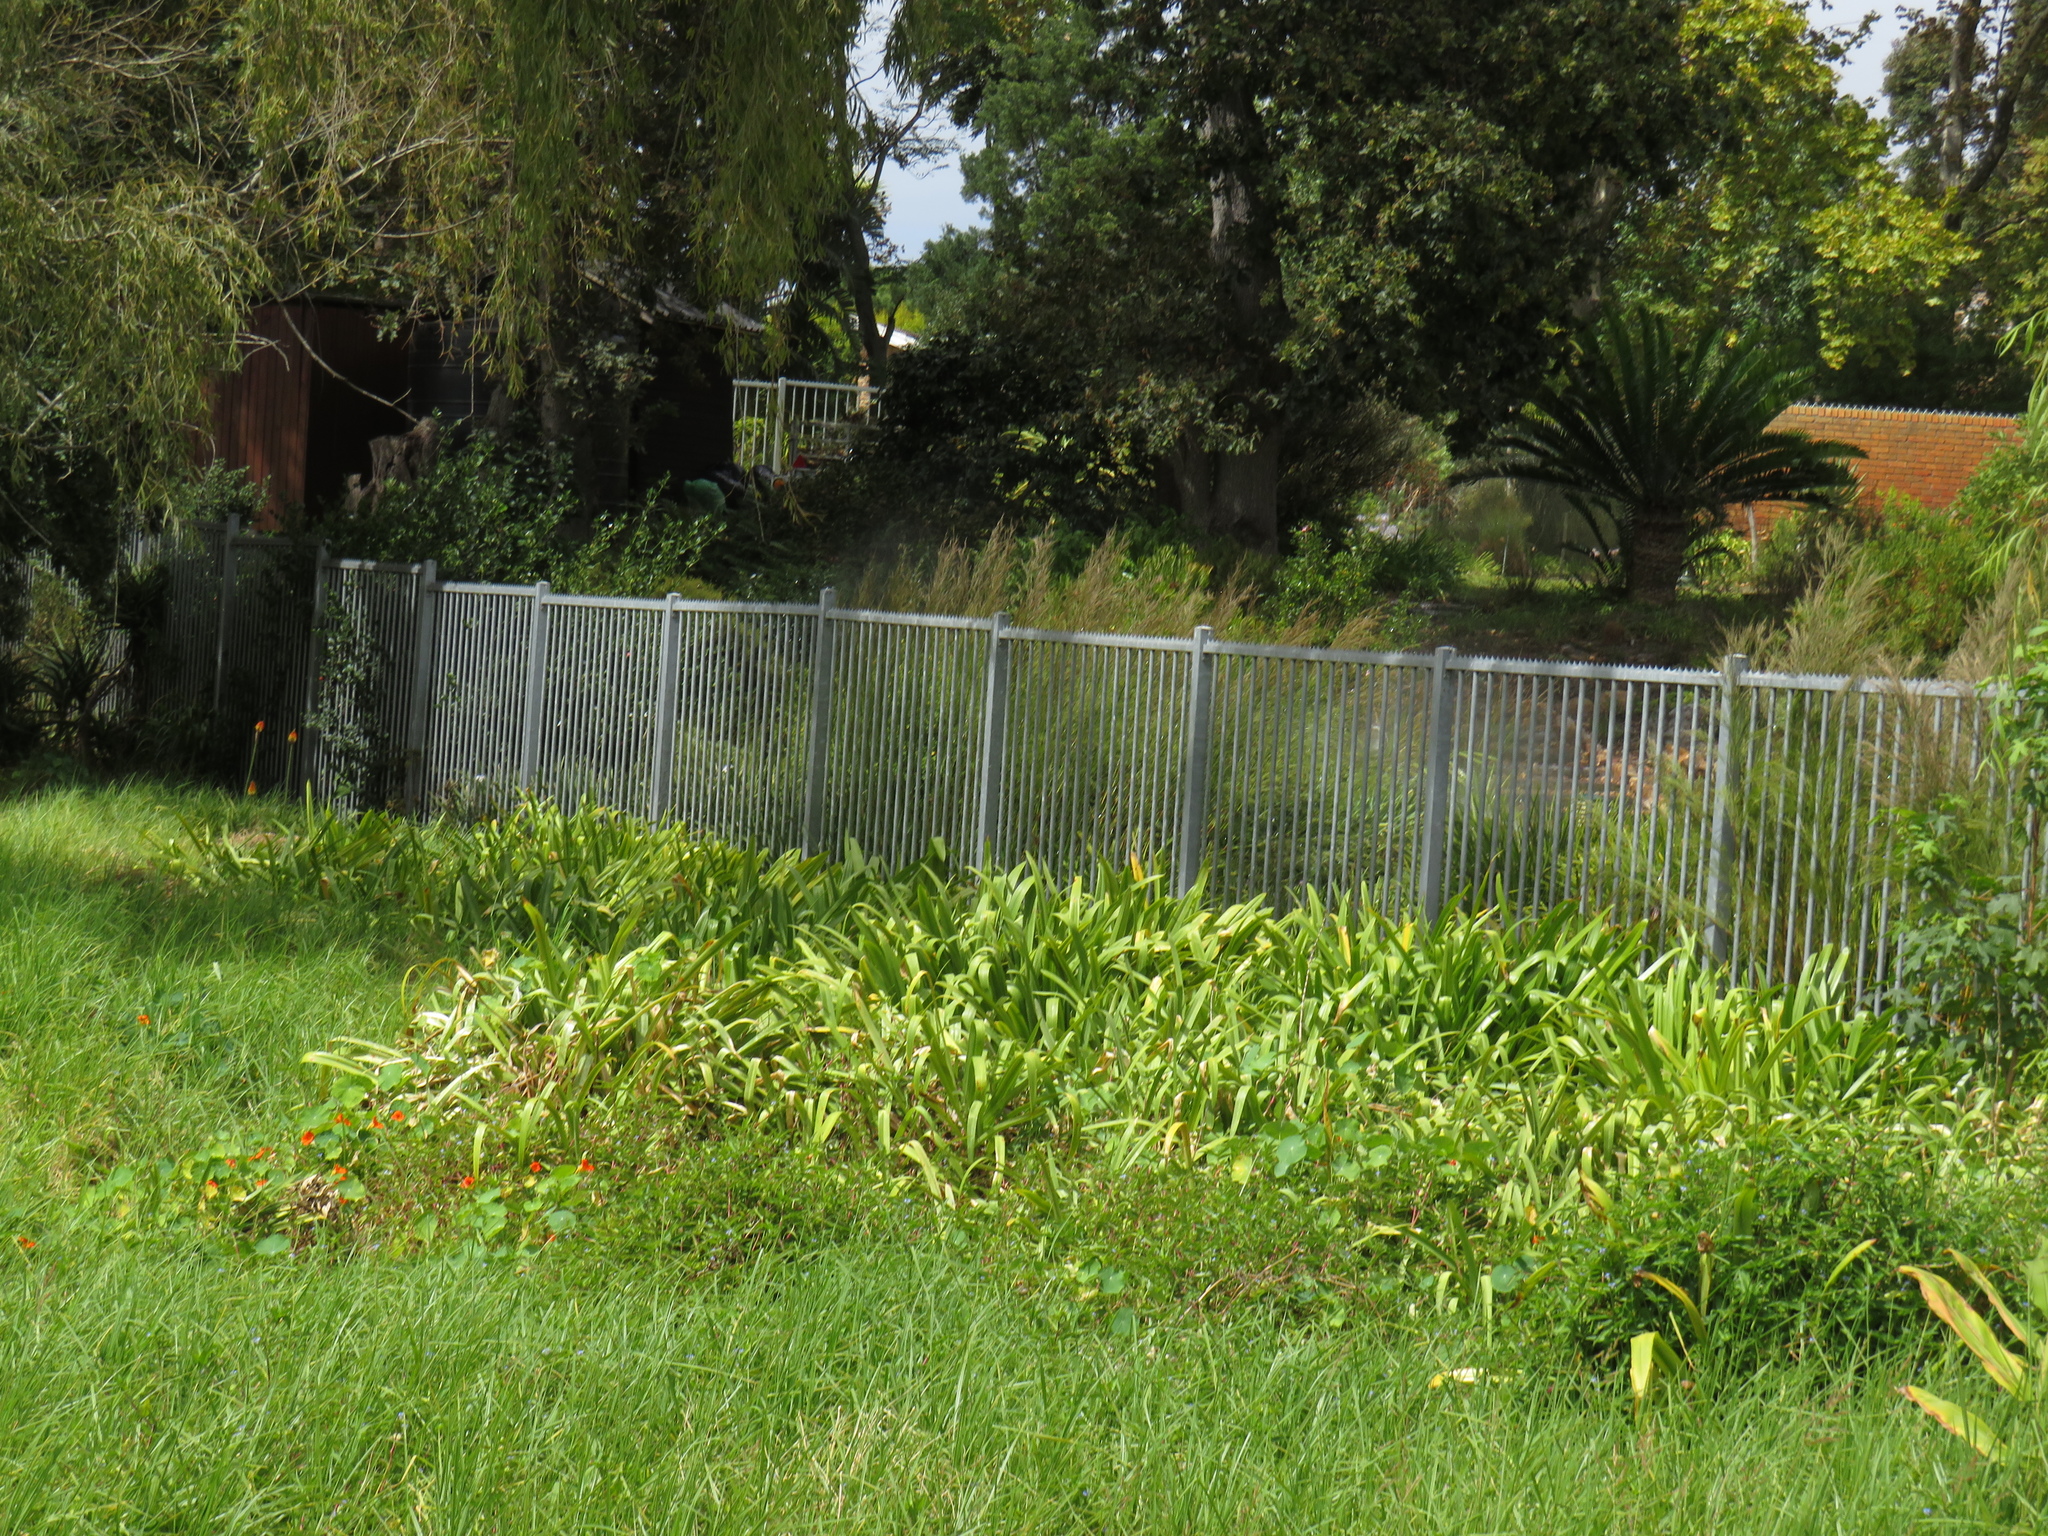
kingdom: Plantae
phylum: Tracheophyta
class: Liliopsida
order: Asparagales
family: Amaryllidaceae
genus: Agapanthus
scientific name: Agapanthus praecox
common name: African-lily
